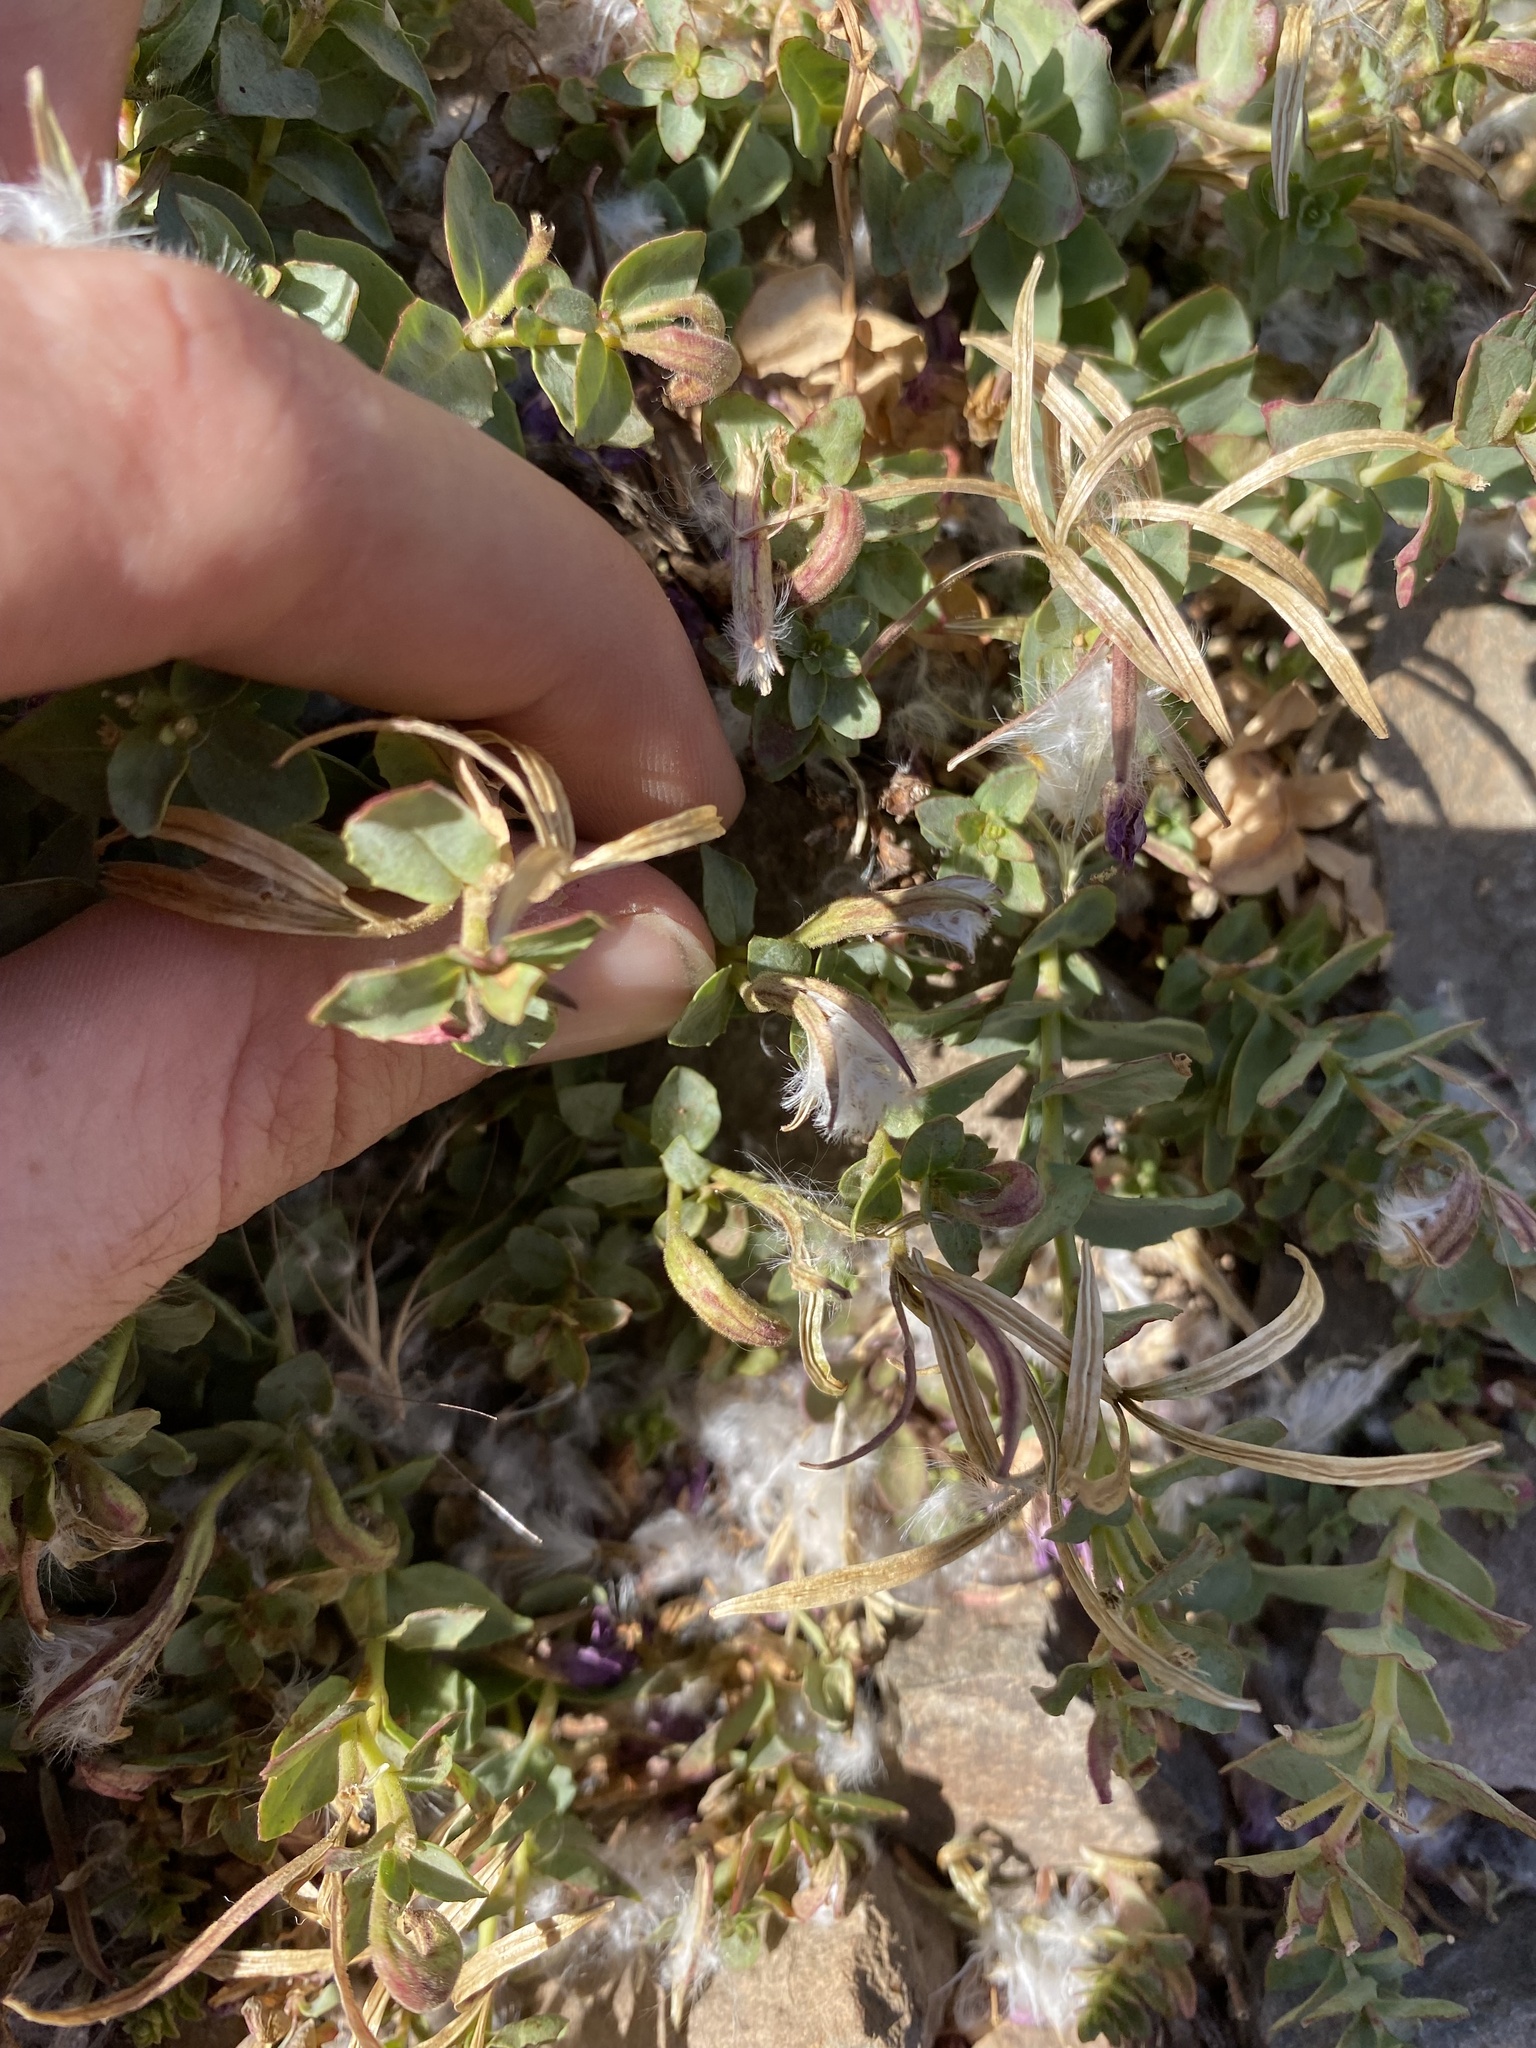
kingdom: Plantae
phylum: Tracheophyta
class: Magnoliopsida
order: Myrtales
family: Onagraceae
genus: Epilobium
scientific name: Epilobium obcordatum
